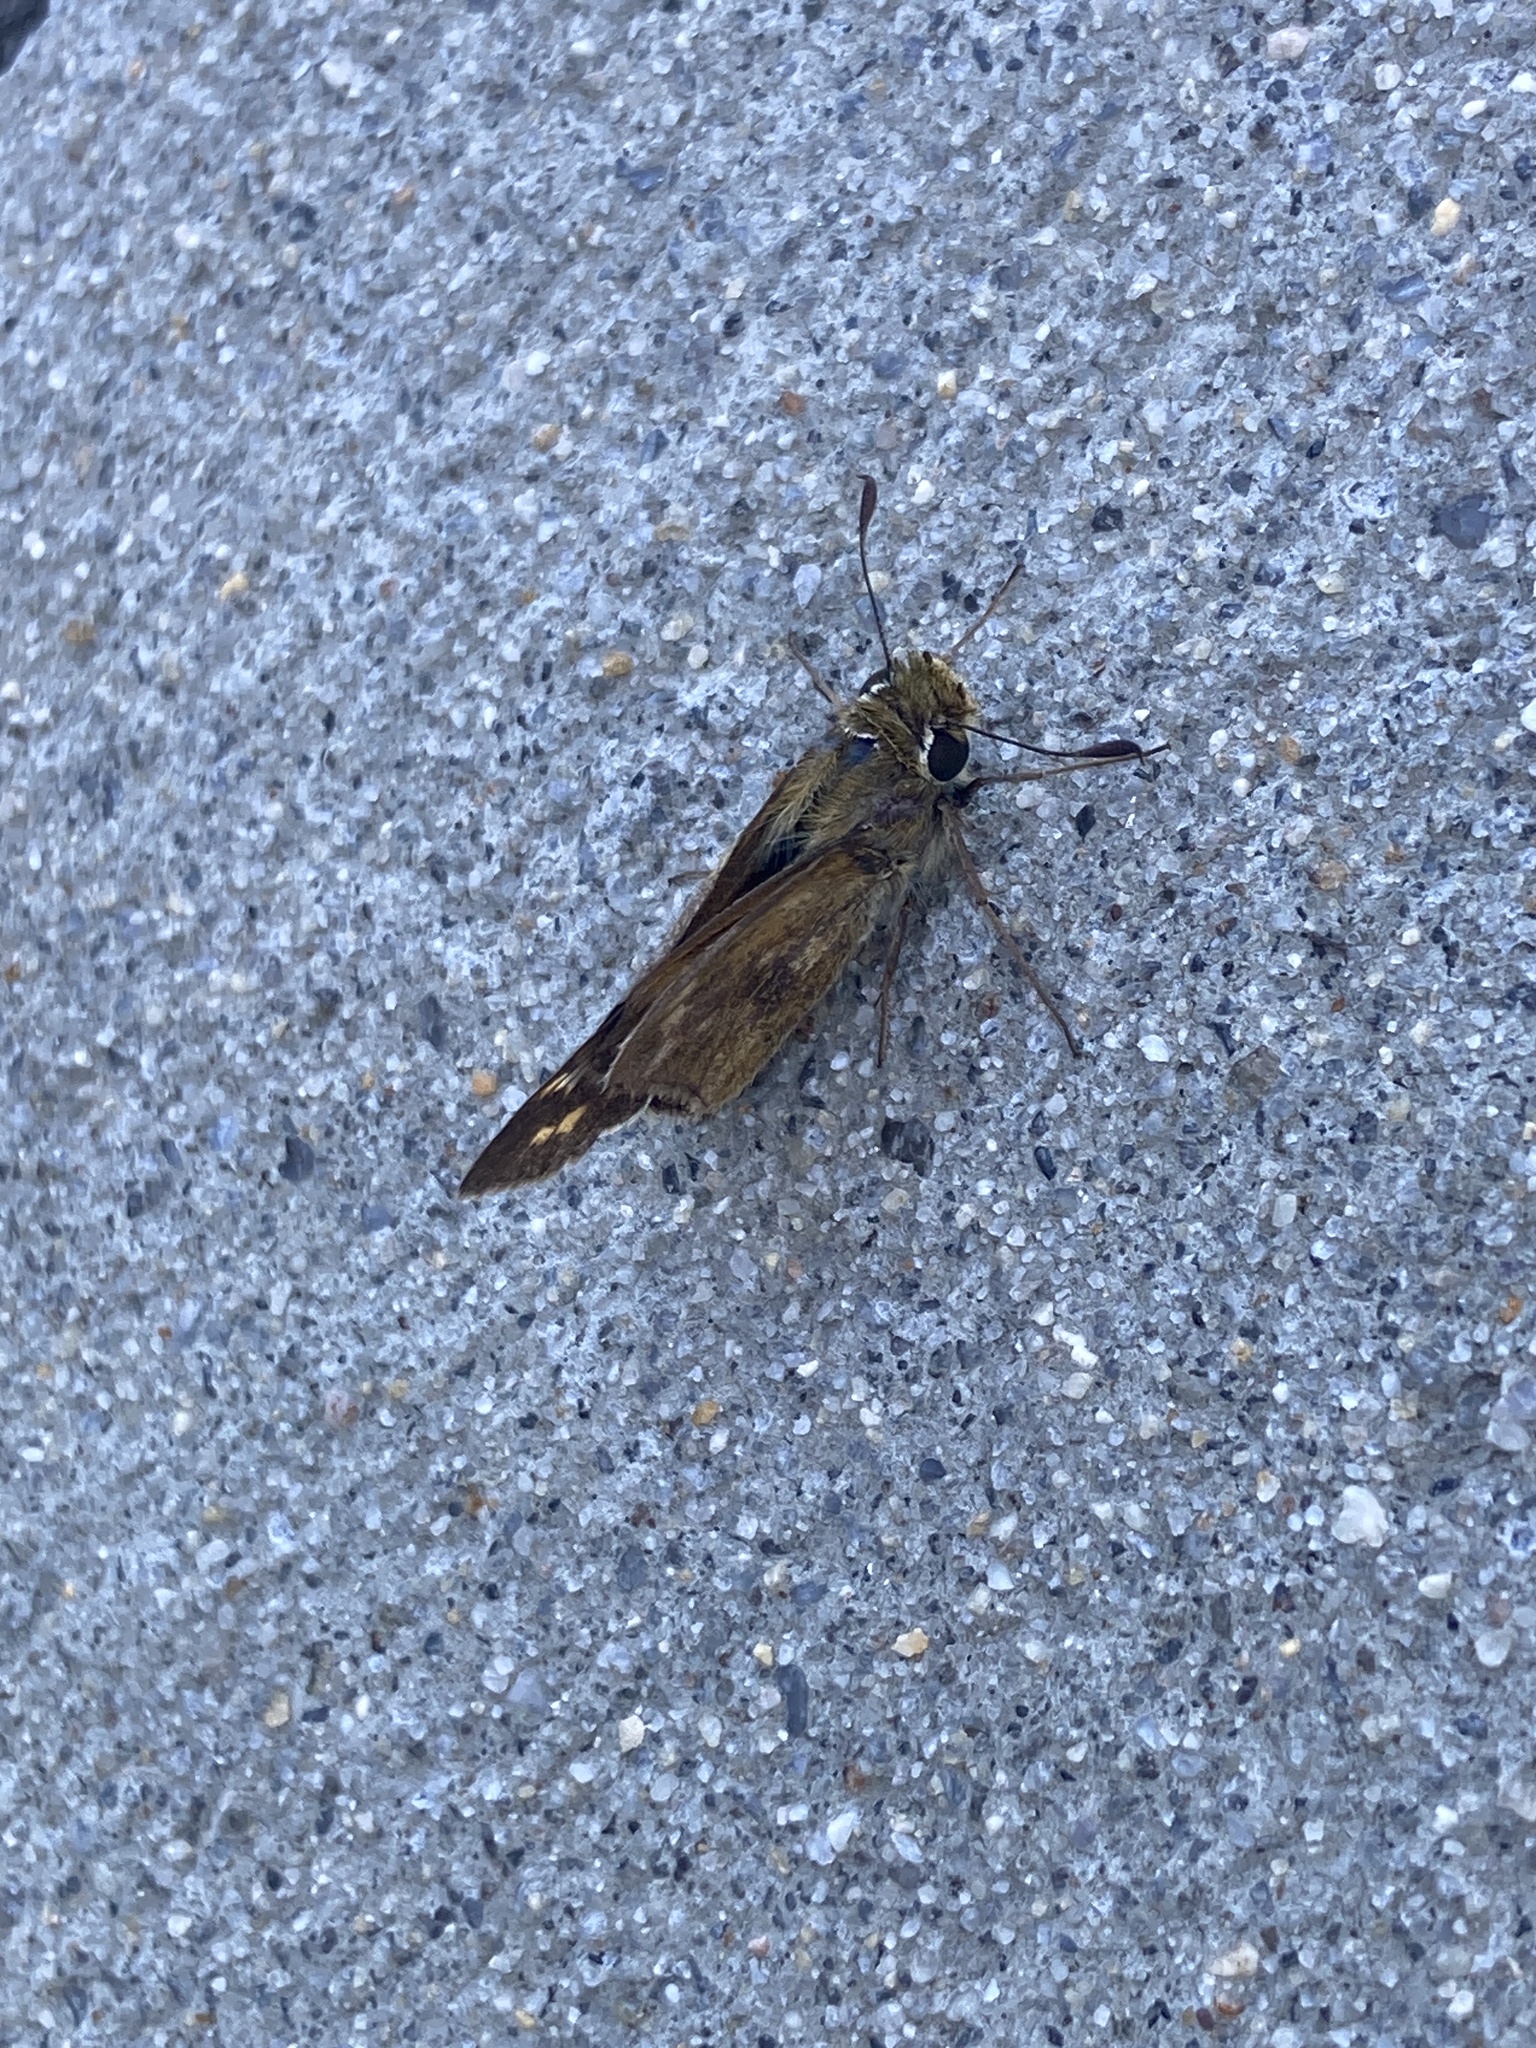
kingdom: Animalia
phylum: Arthropoda
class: Insecta
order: Lepidoptera
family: Hesperiidae
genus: Atalopedes
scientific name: Atalopedes
